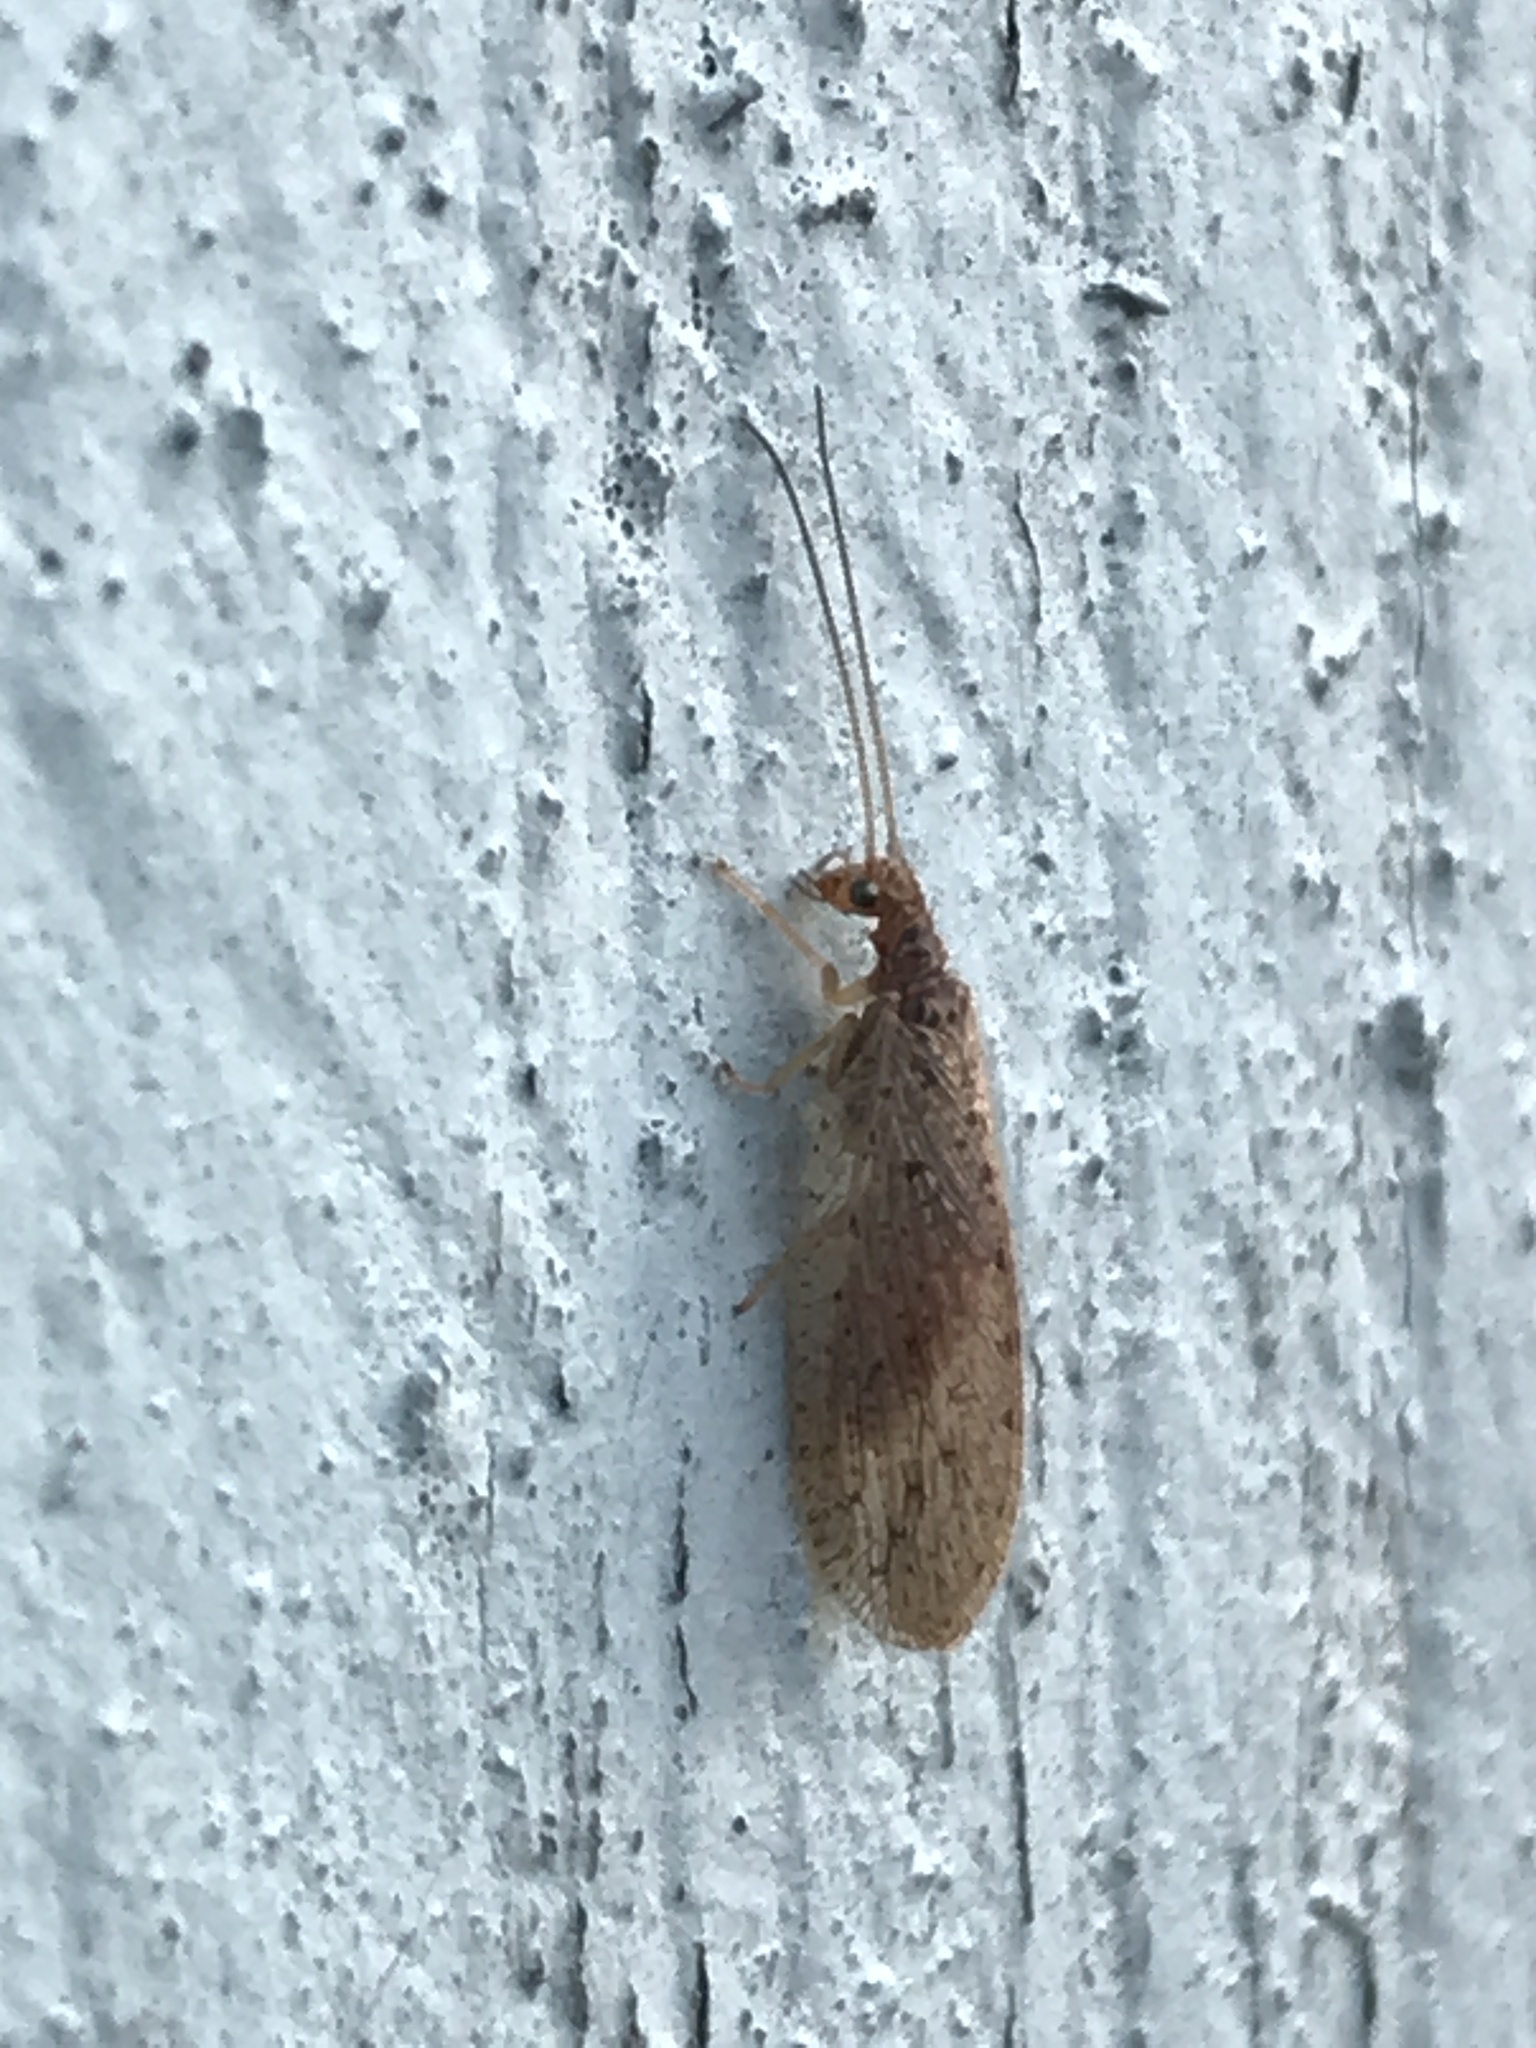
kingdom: Animalia
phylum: Arthropoda
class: Insecta
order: Neuroptera
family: Hemerobiidae
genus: Micromus
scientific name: Micromus subanticus
